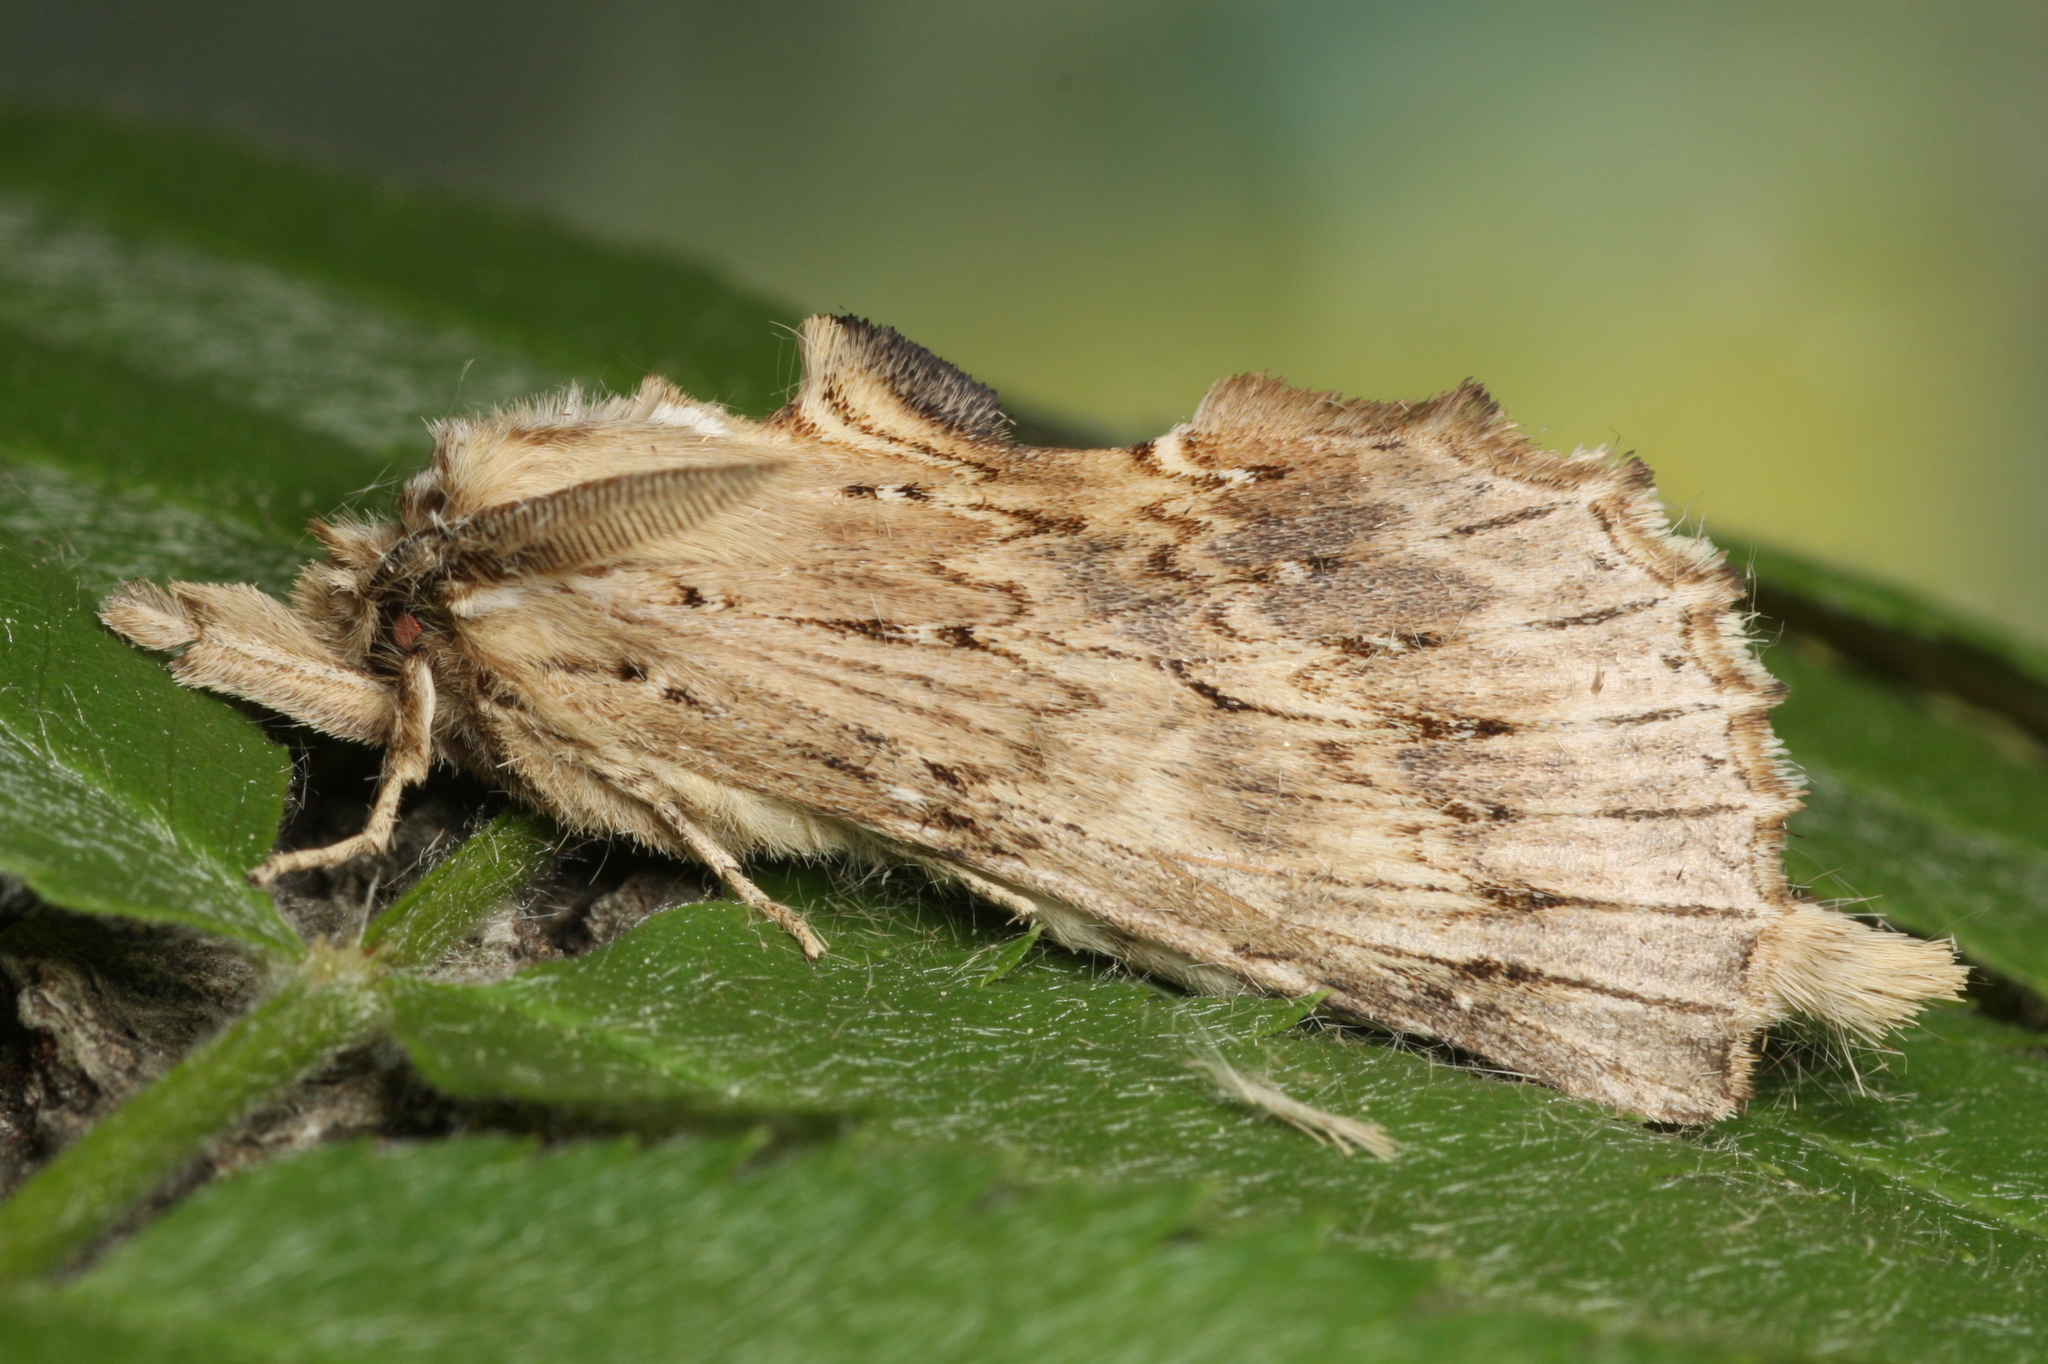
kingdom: Animalia
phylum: Arthropoda
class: Insecta
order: Lepidoptera
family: Notodontidae
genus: Pterostoma
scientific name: Pterostoma palpina
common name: Pale prominent
